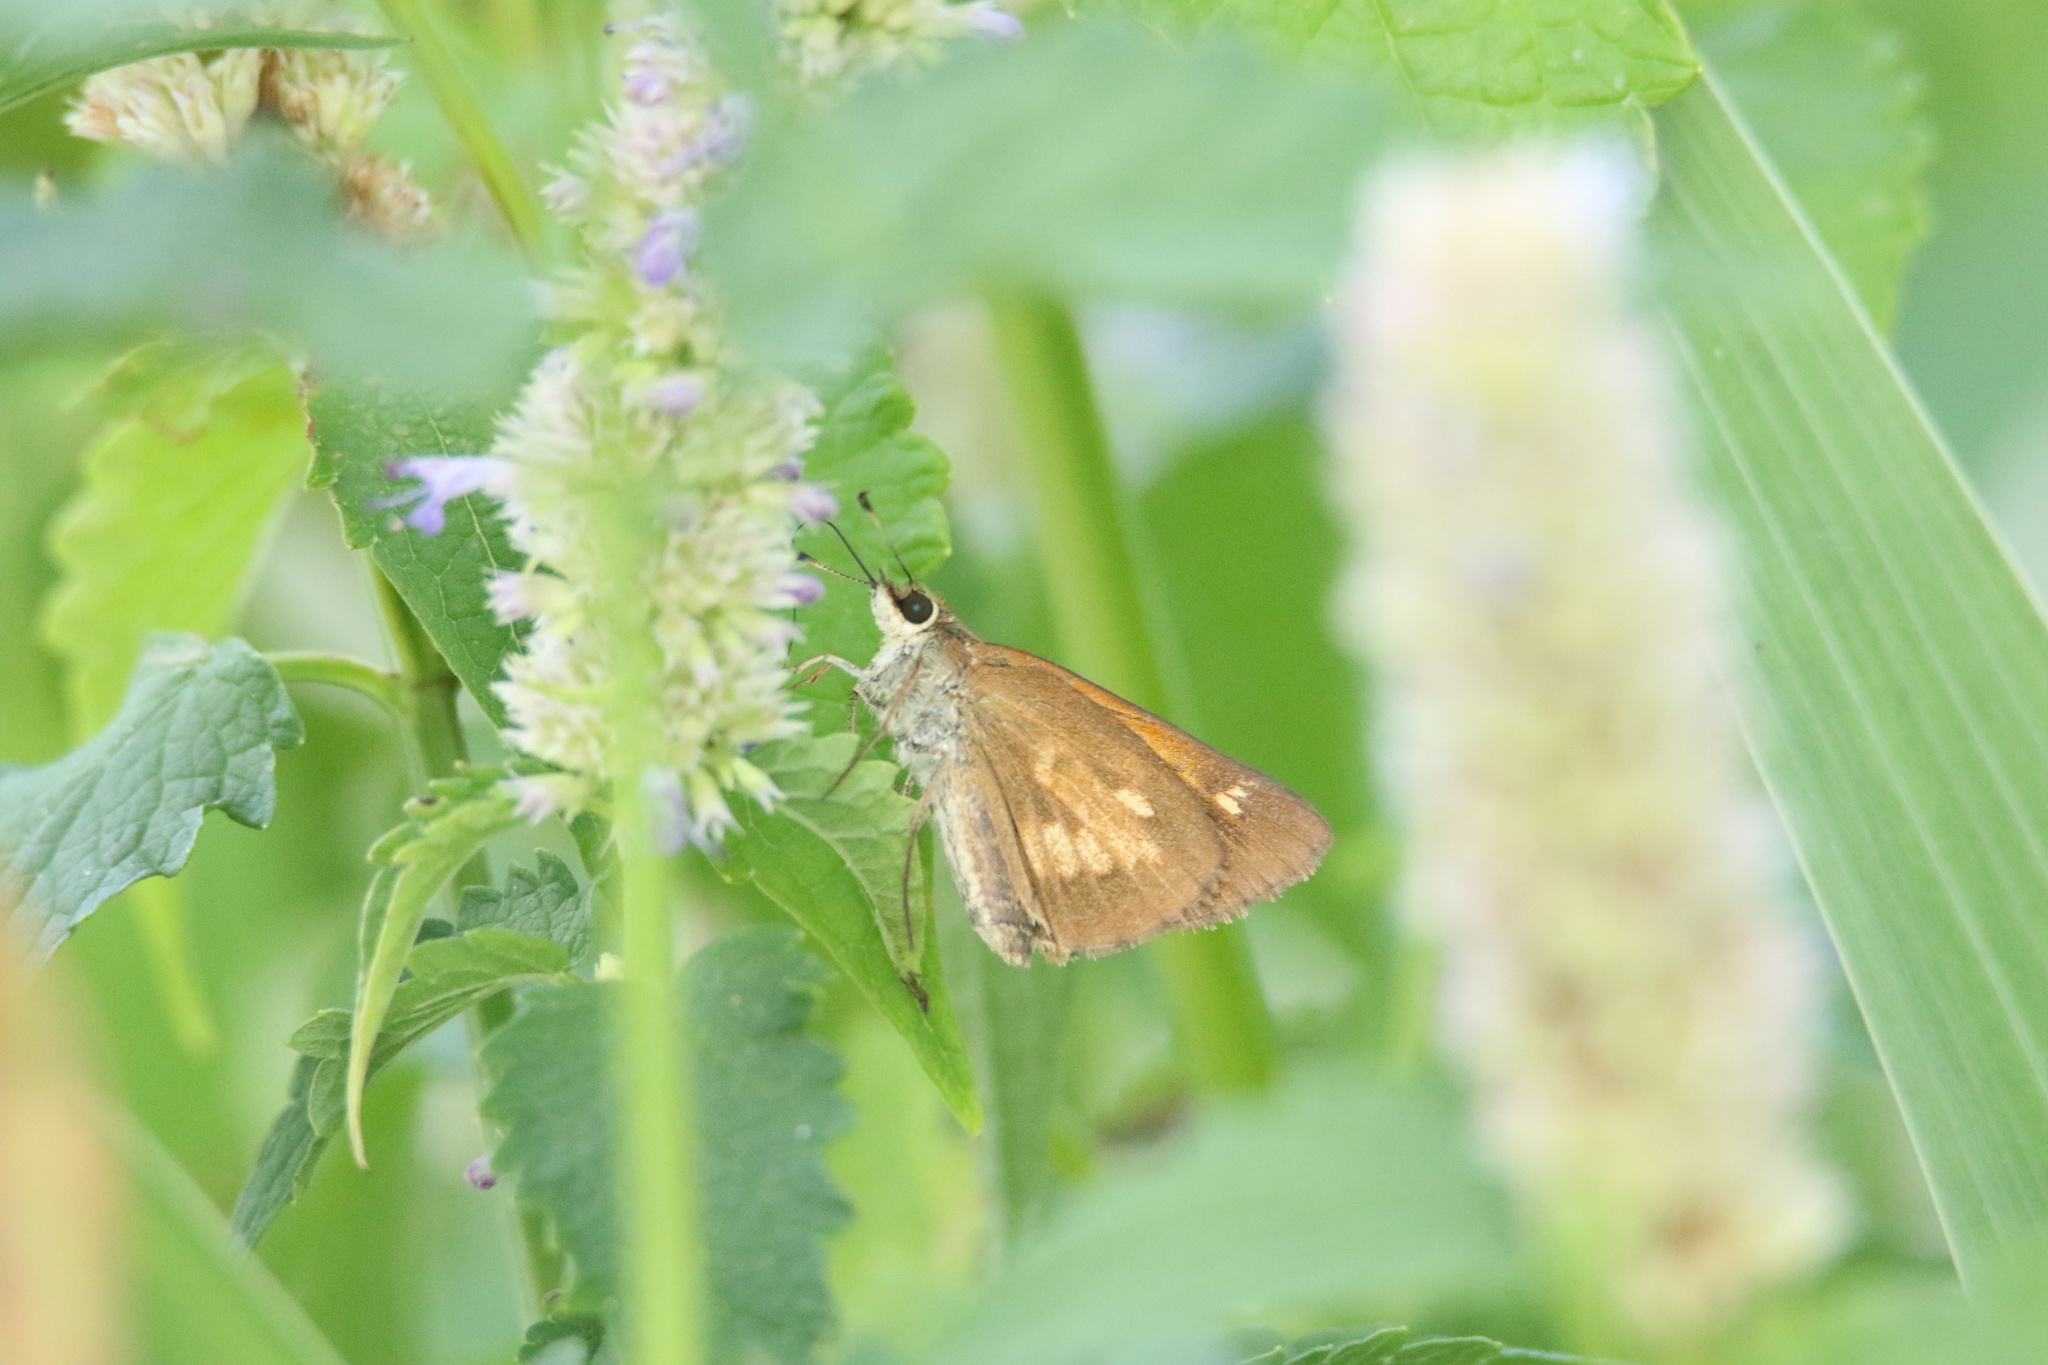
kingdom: Animalia
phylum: Arthropoda
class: Insecta
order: Lepidoptera
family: Hesperiidae
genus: Poanes
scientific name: Poanes viator
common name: Broad-winged skipper
